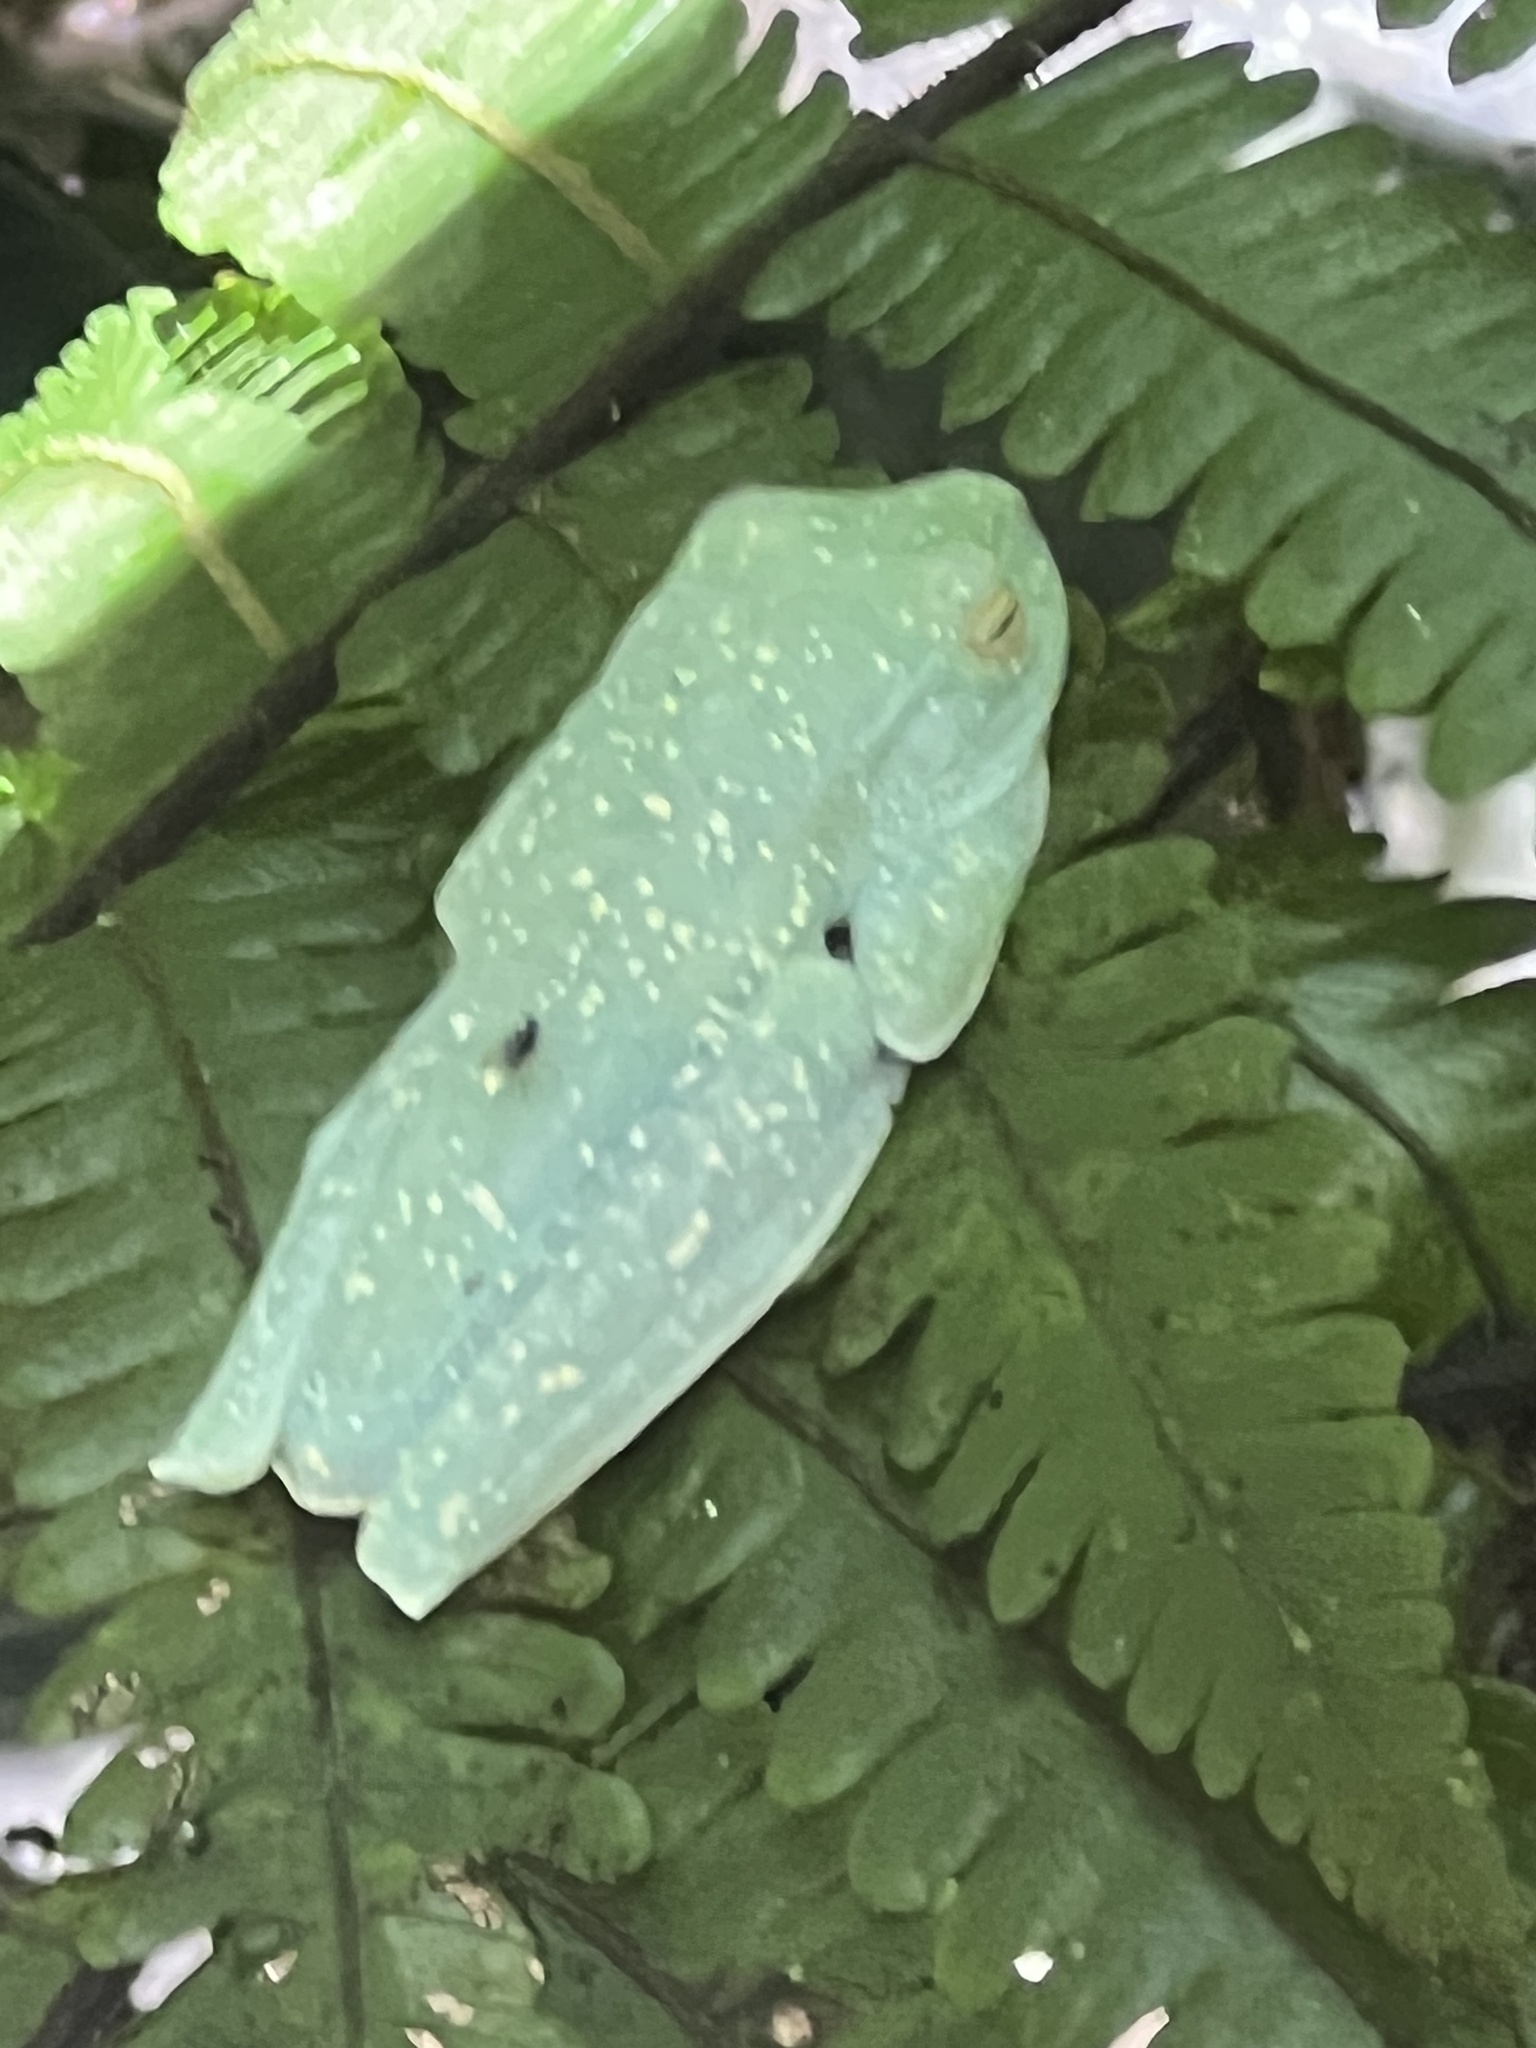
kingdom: Animalia
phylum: Chordata
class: Amphibia
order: Anura
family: Hylidae
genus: Boana
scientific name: Boana rufitela
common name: Canal zone treefrog
